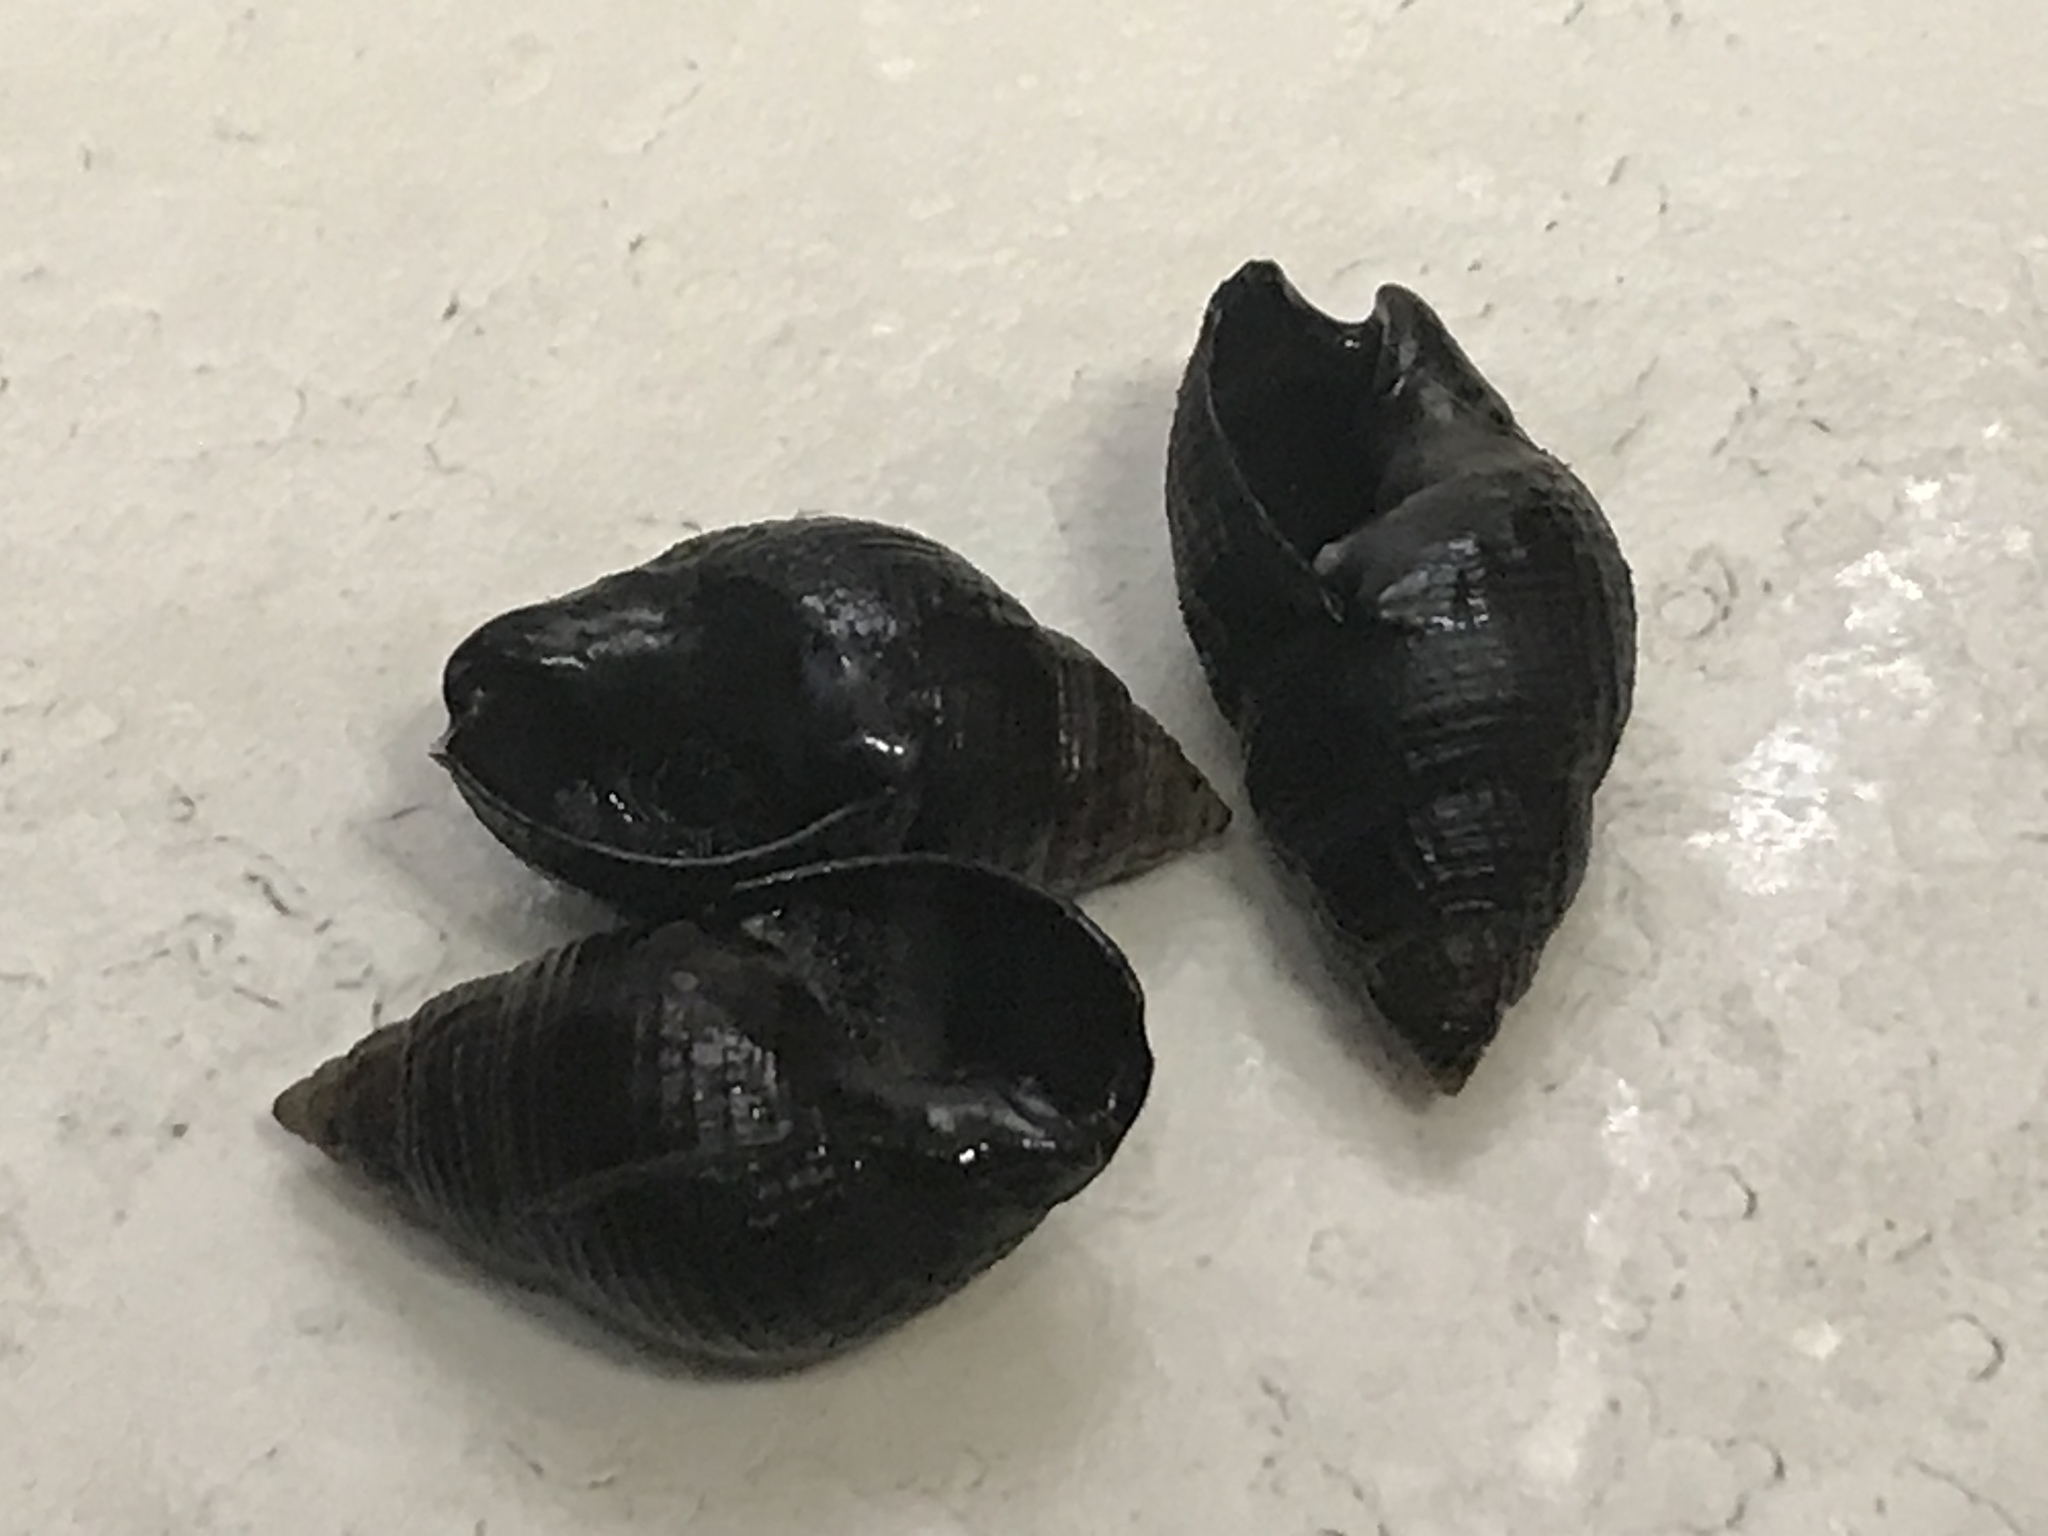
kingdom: Animalia
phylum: Mollusca
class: Gastropoda
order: Neogastropoda
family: Nassariidae
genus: Ilyanassa
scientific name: Ilyanassa obsoleta
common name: Eastern mudsnail
